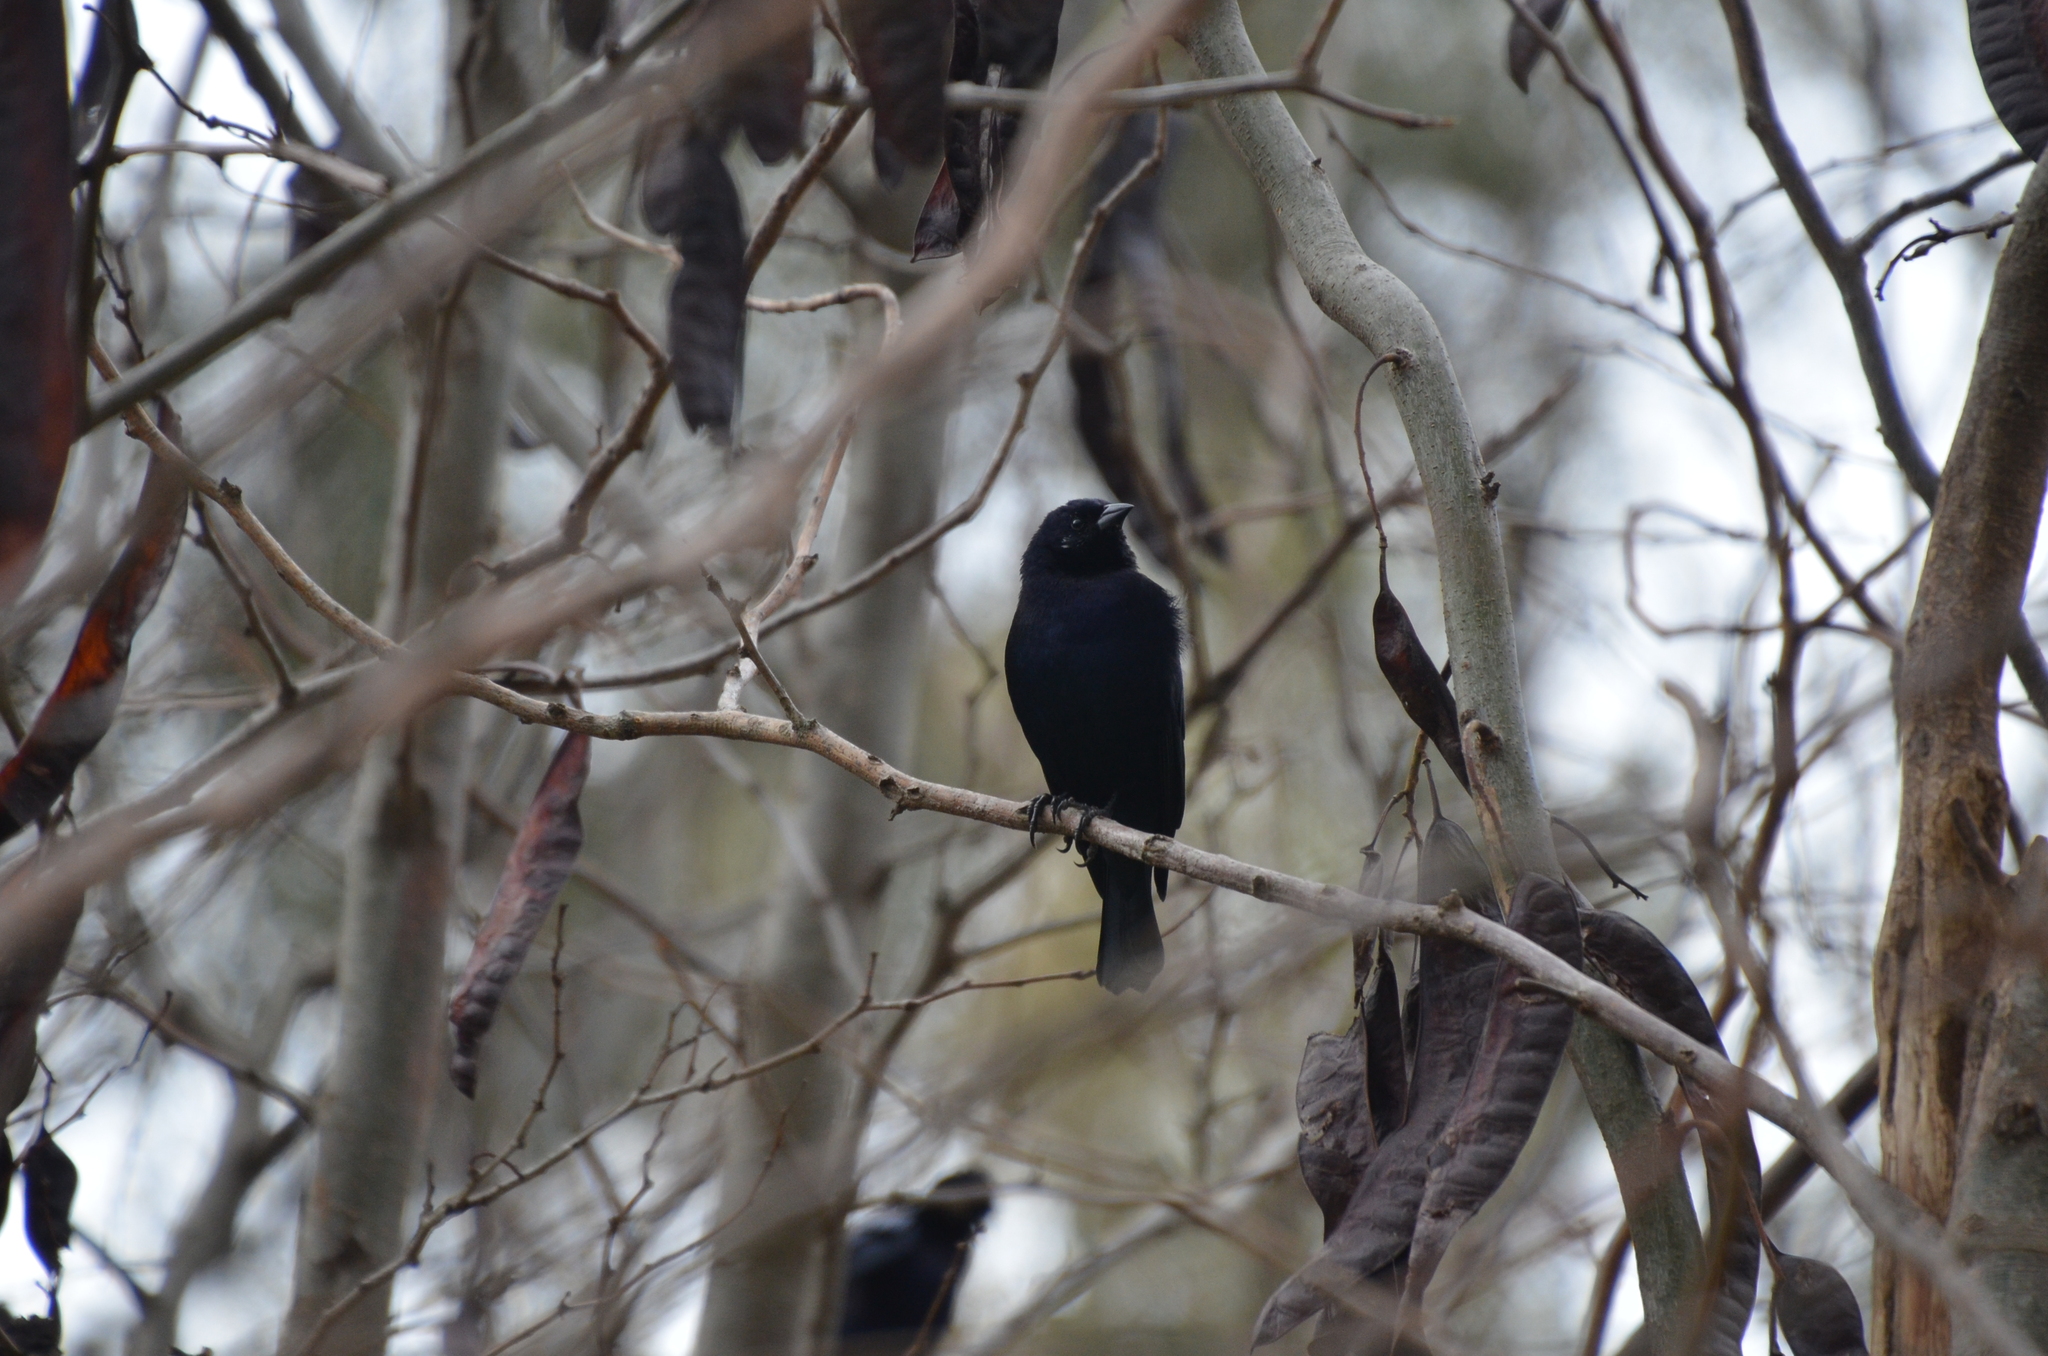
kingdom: Animalia
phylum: Chordata
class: Aves
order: Passeriformes
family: Icteridae
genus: Molothrus
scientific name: Molothrus bonariensis
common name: Shiny cowbird
